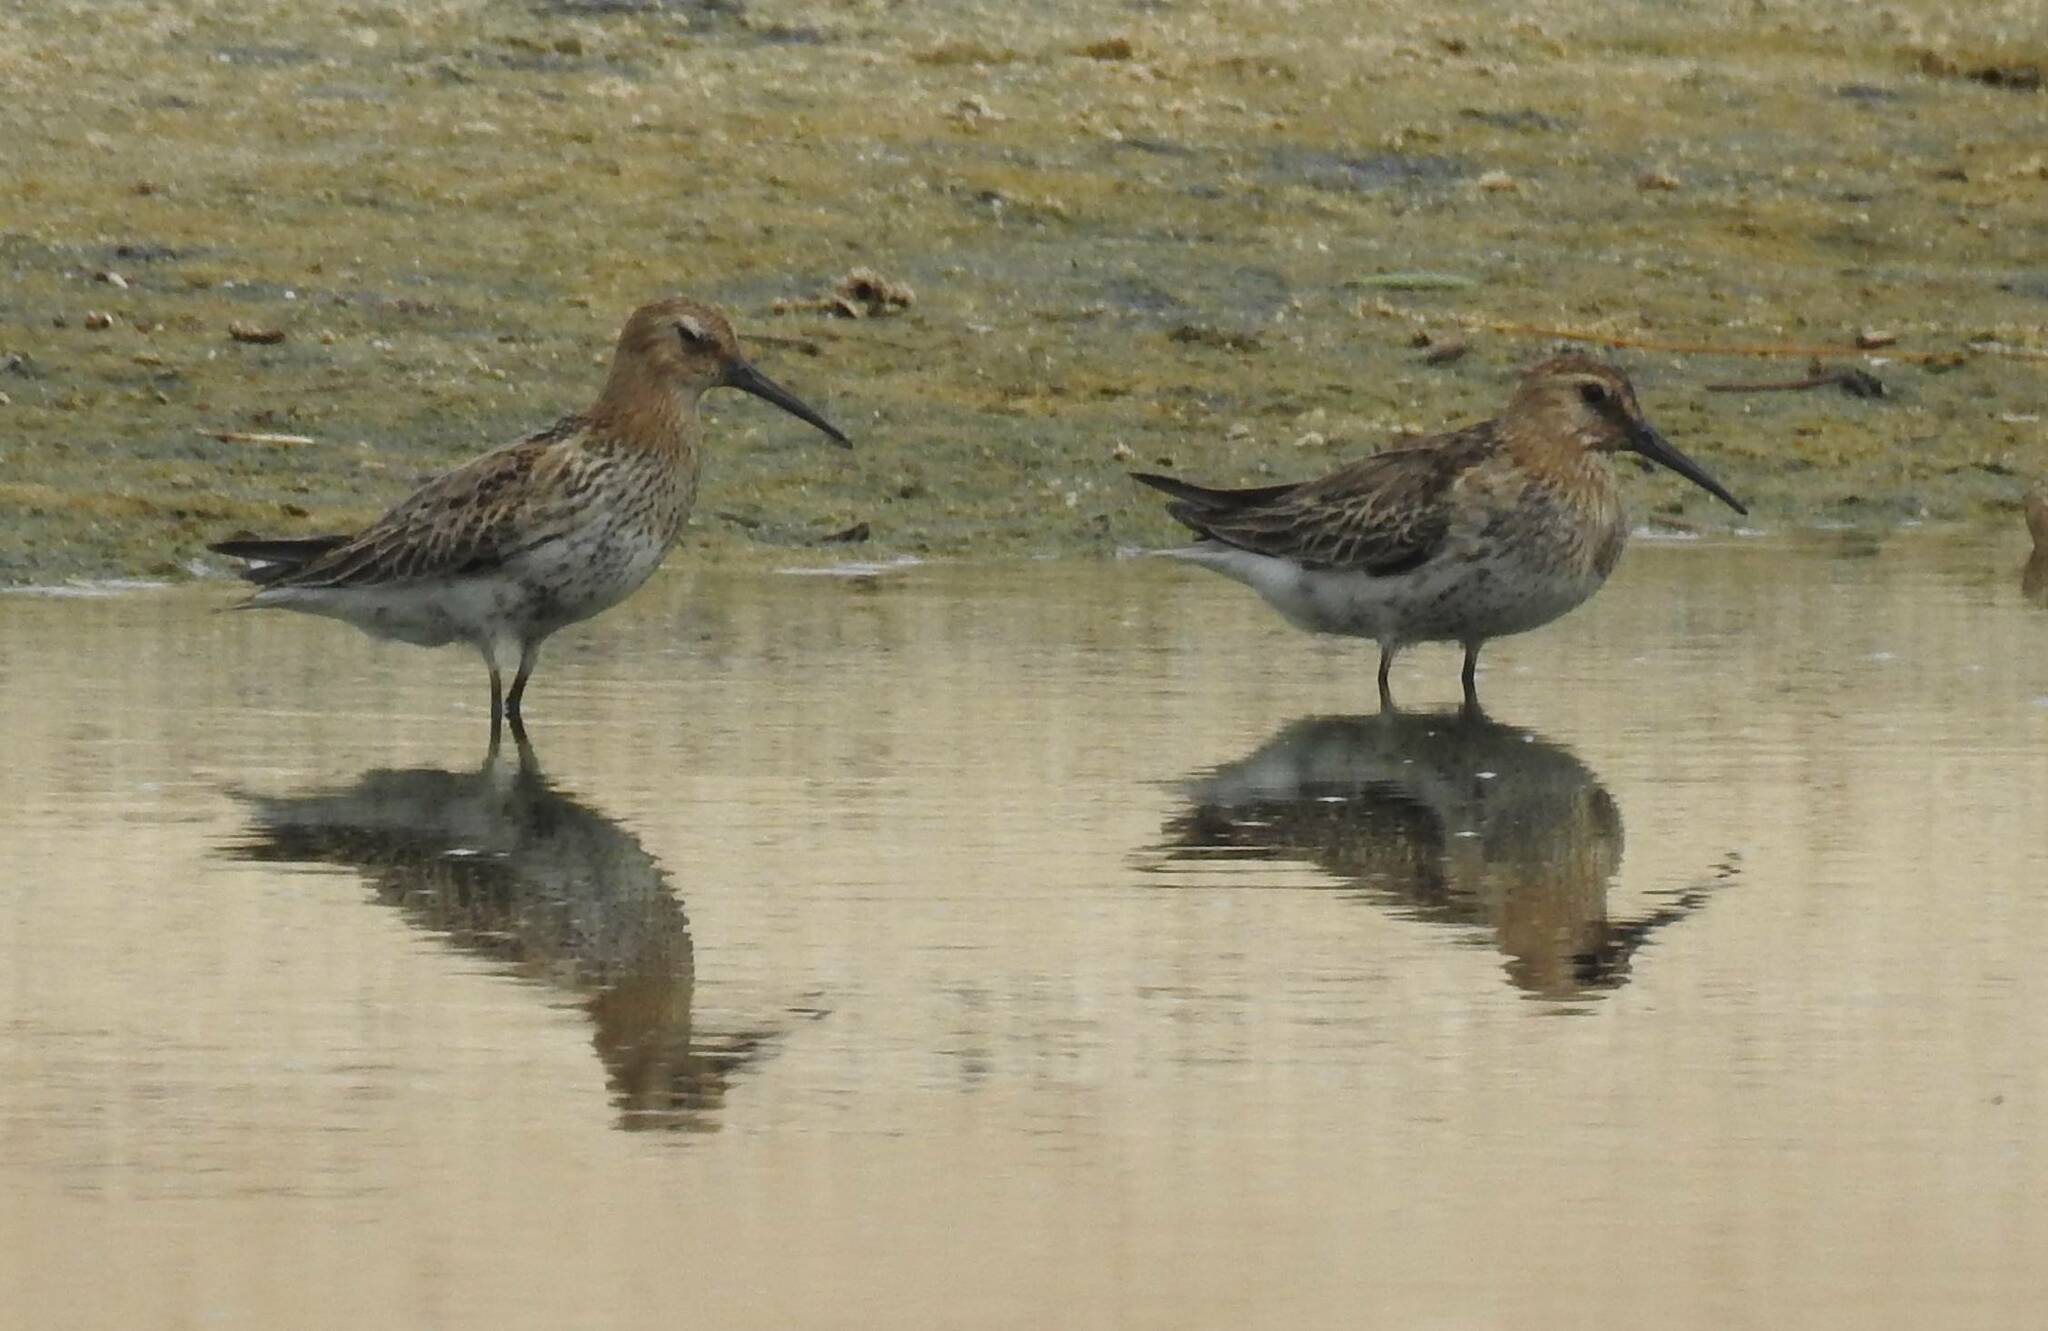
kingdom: Animalia
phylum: Chordata
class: Aves
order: Charadriiformes
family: Scolopacidae
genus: Calidris
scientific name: Calidris alpina
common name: Dunlin
